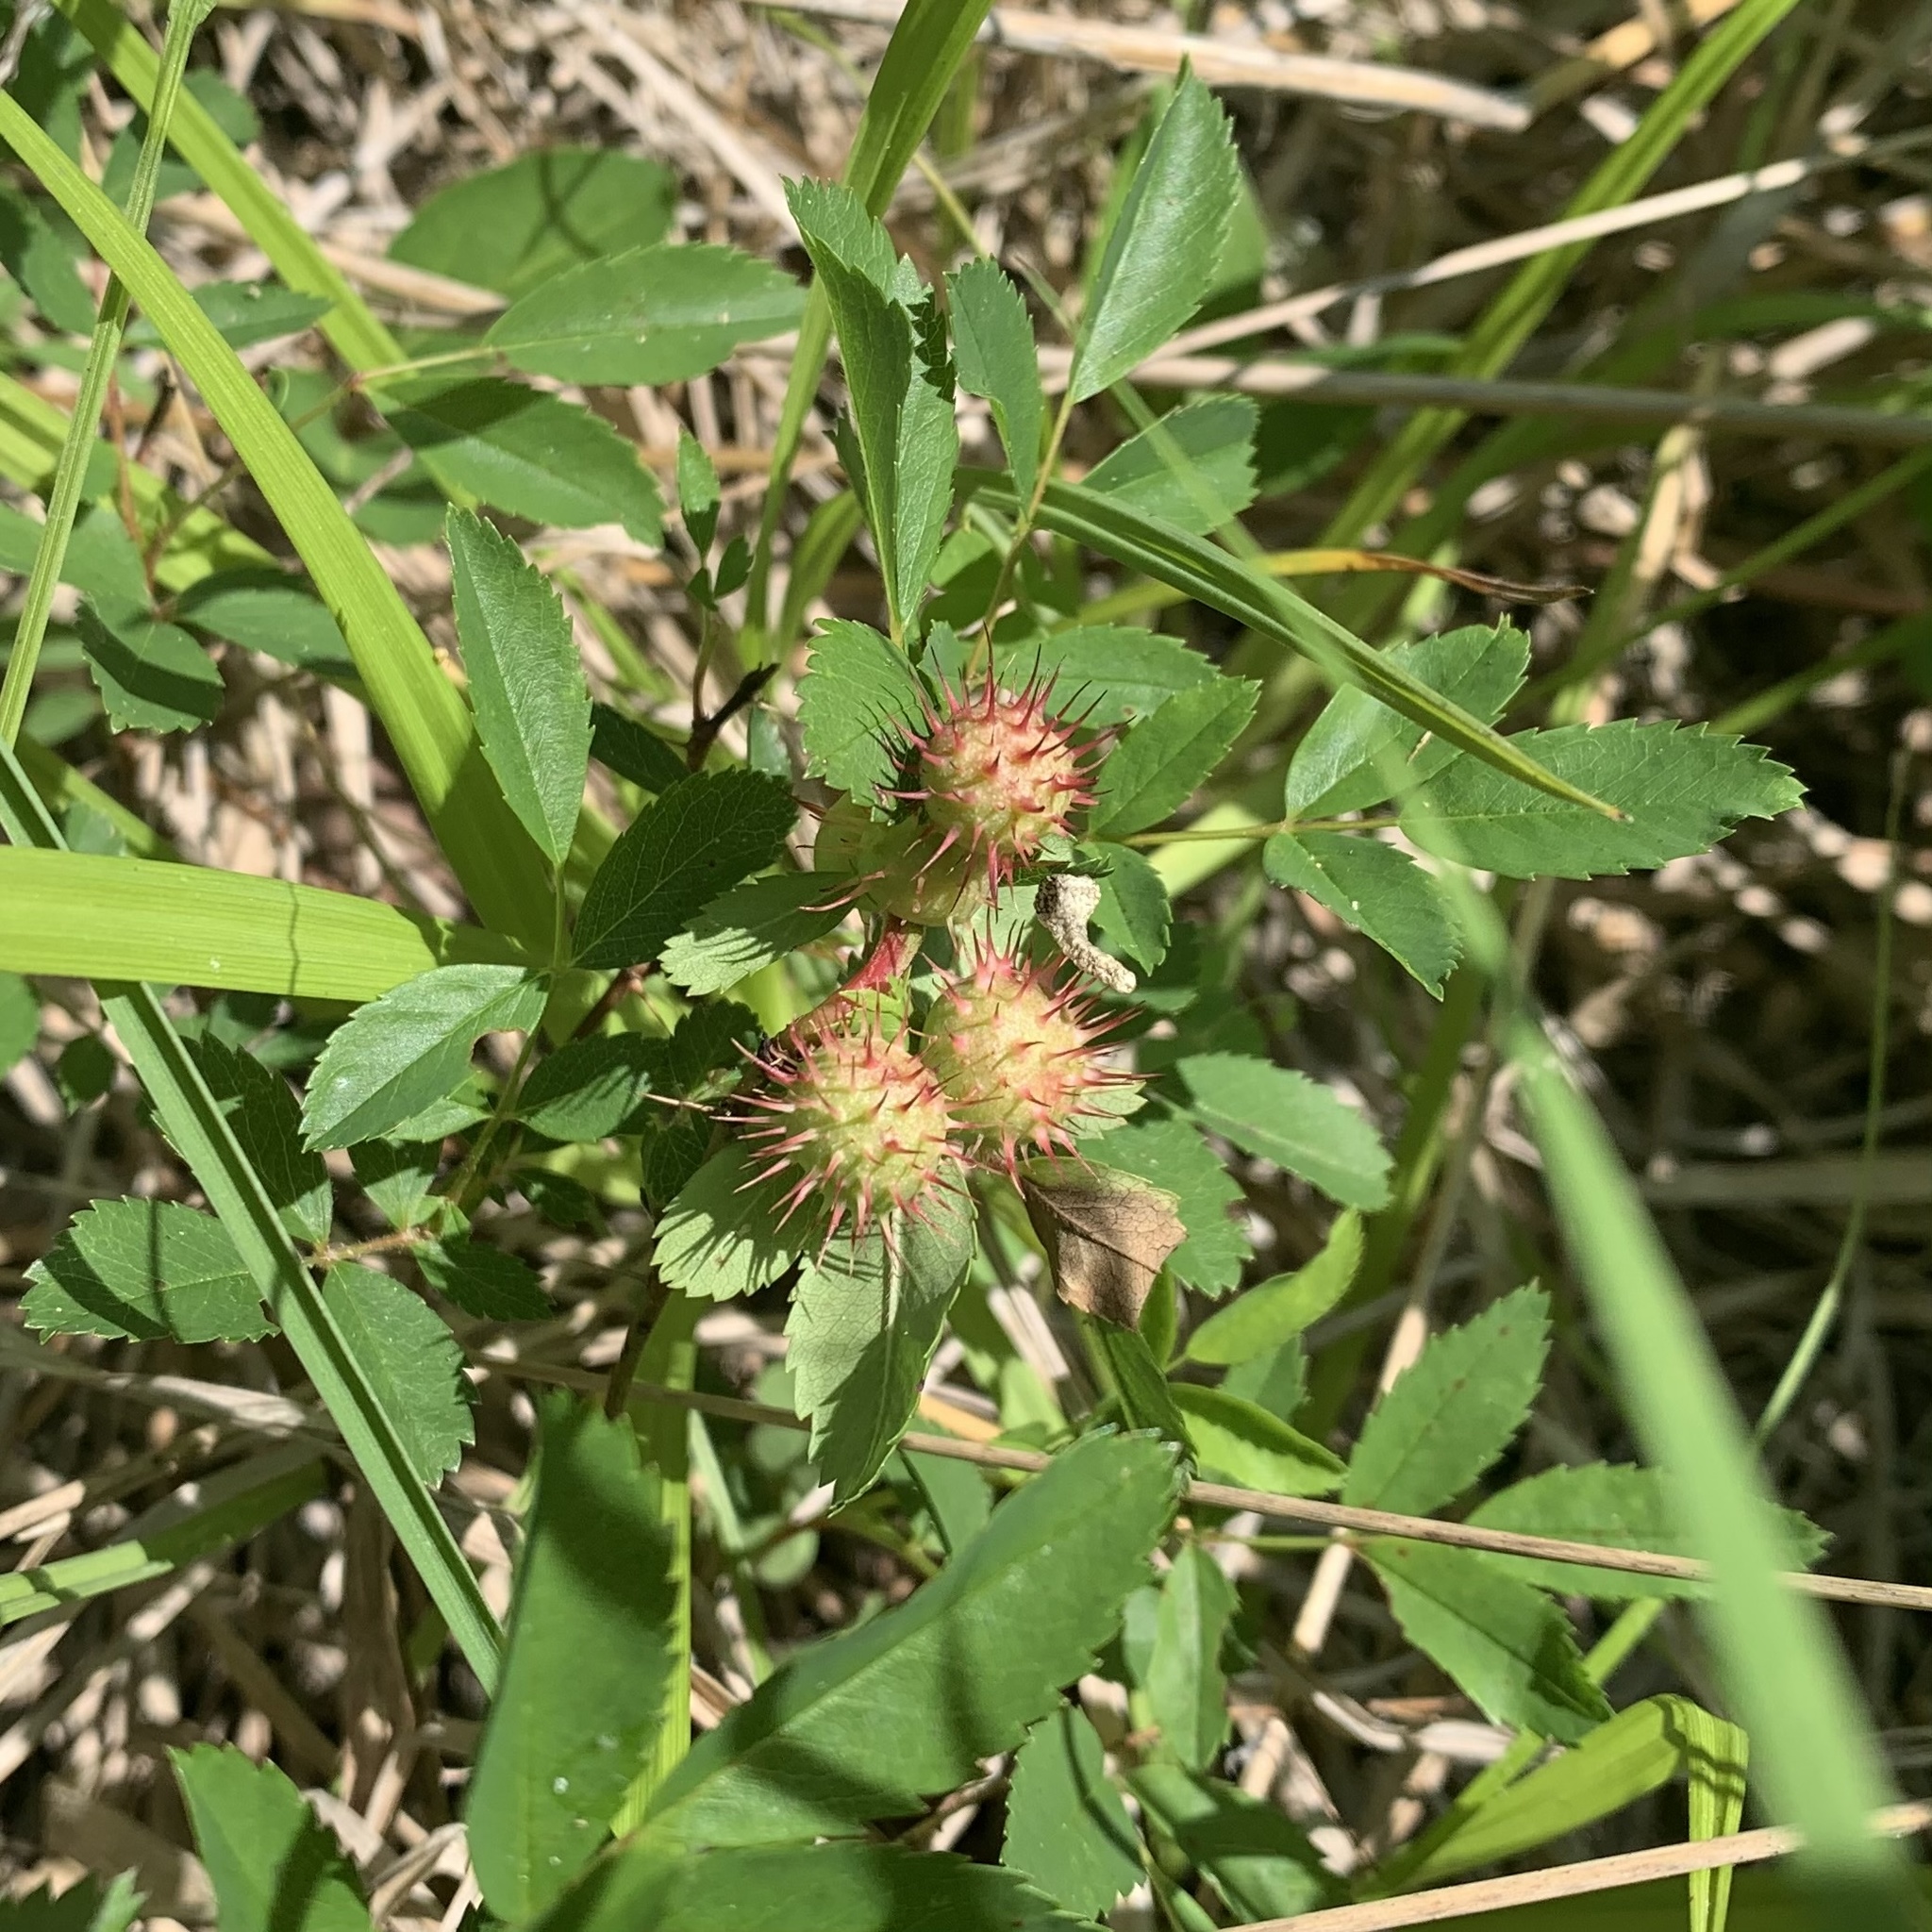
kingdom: Animalia
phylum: Arthropoda
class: Insecta
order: Hymenoptera
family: Cynipidae
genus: Diplolepis
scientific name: Diplolepis bicolor
